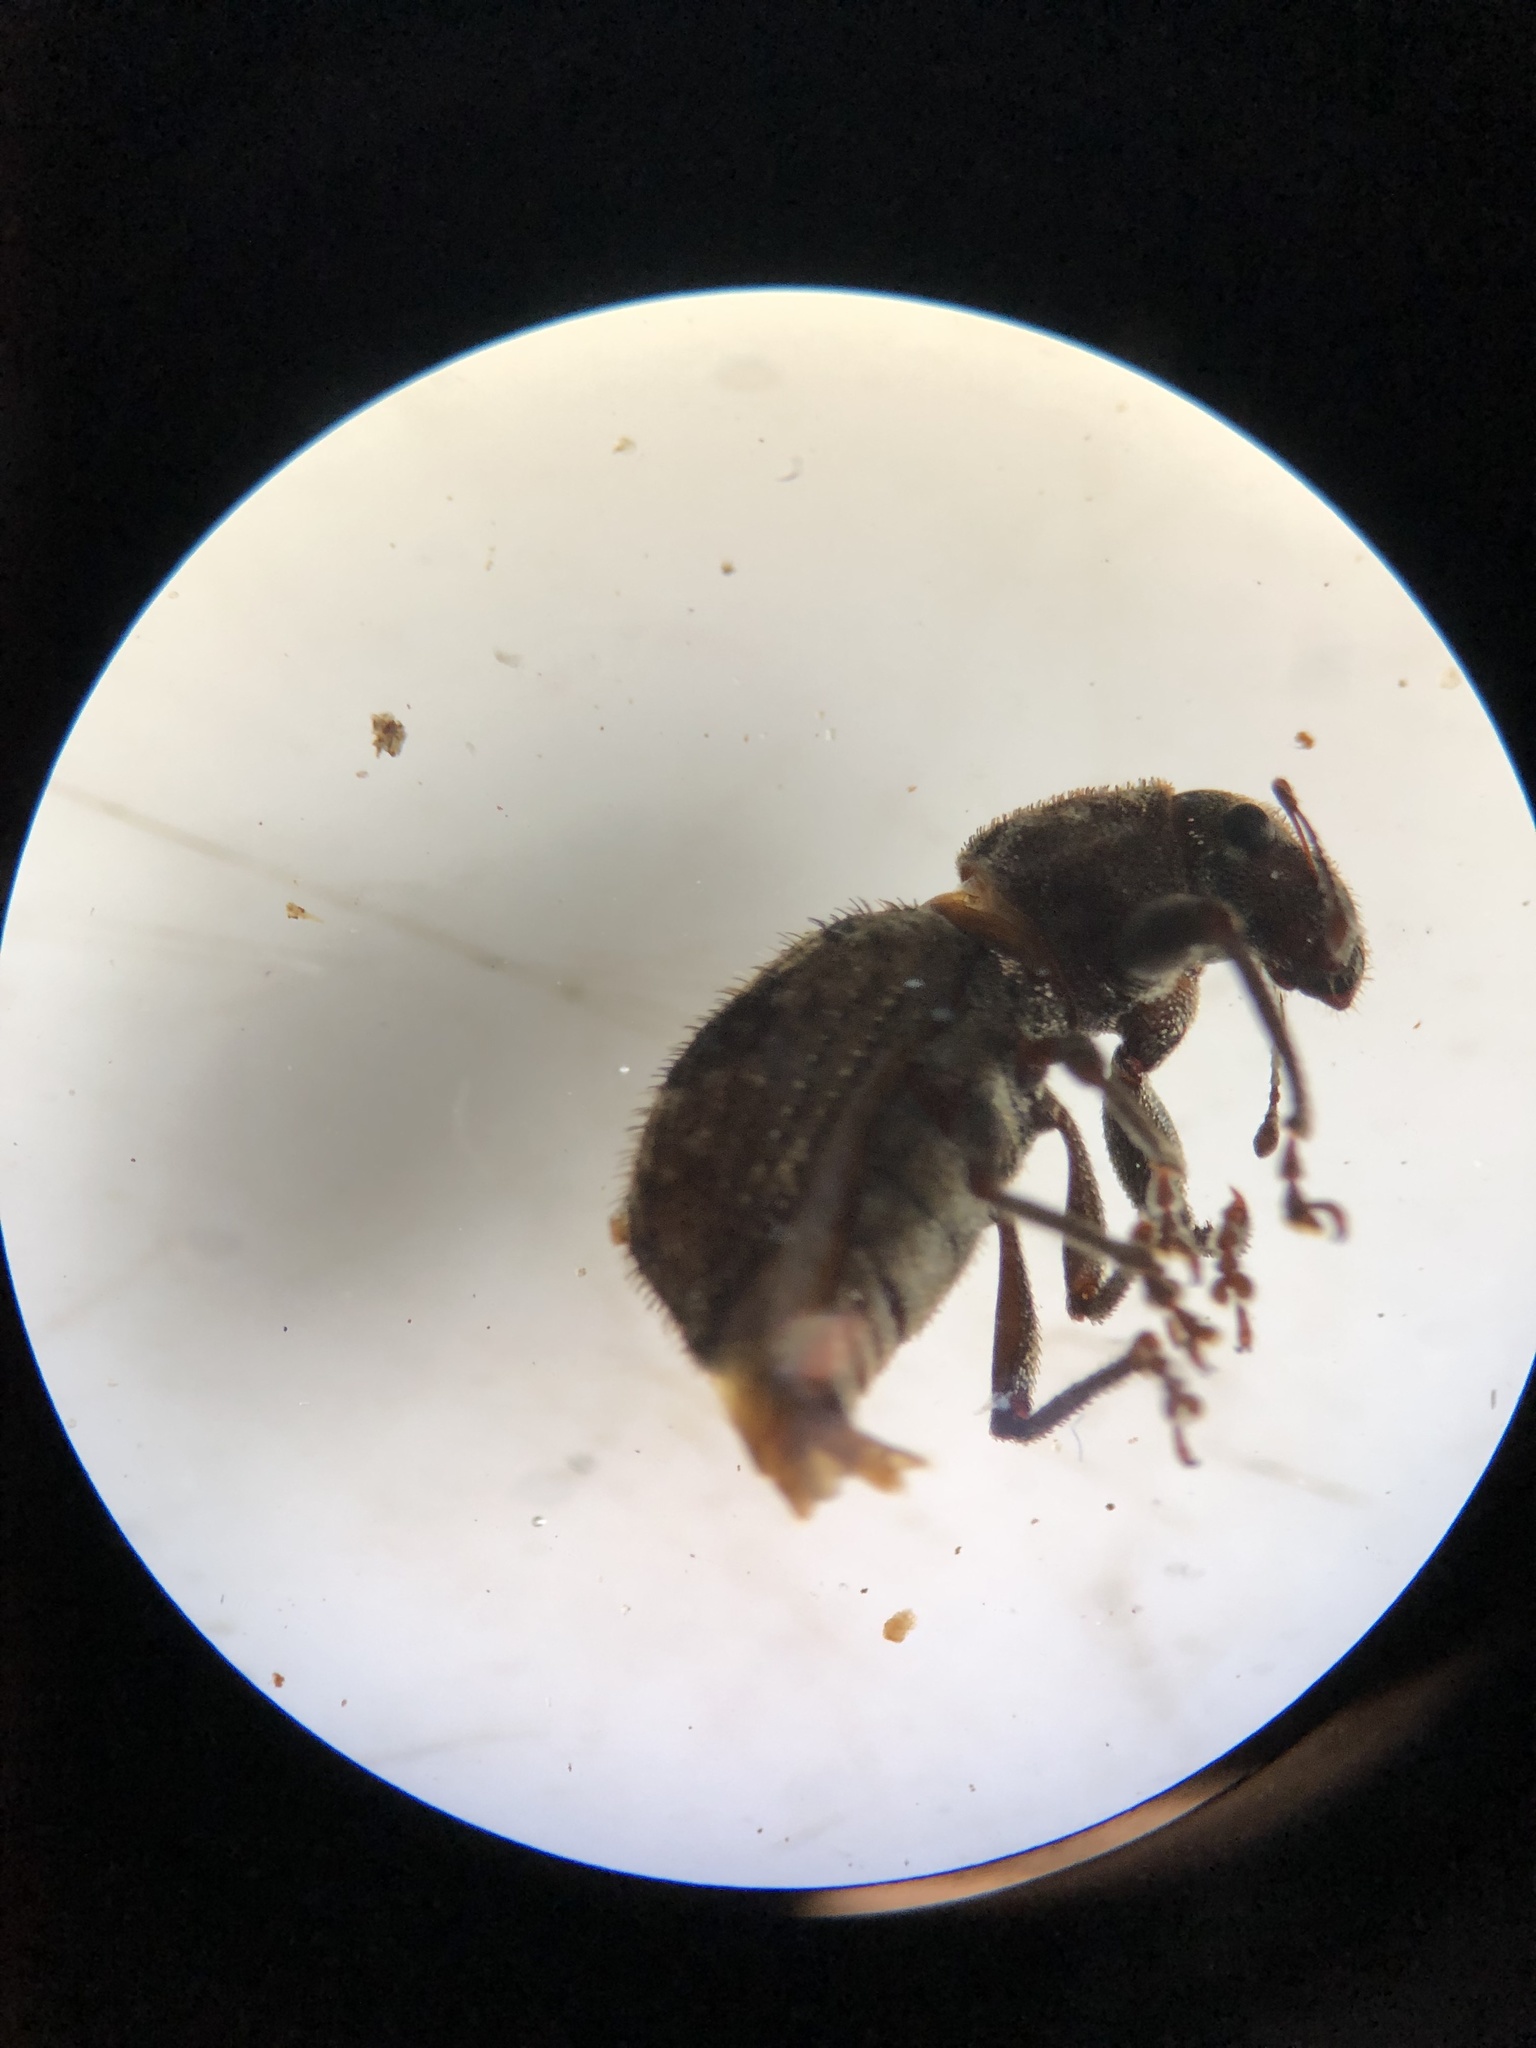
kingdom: Animalia
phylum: Arthropoda
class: Insecta
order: Coleoptera
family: Curculionidae
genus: Pantomorus
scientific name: Pantomorus
